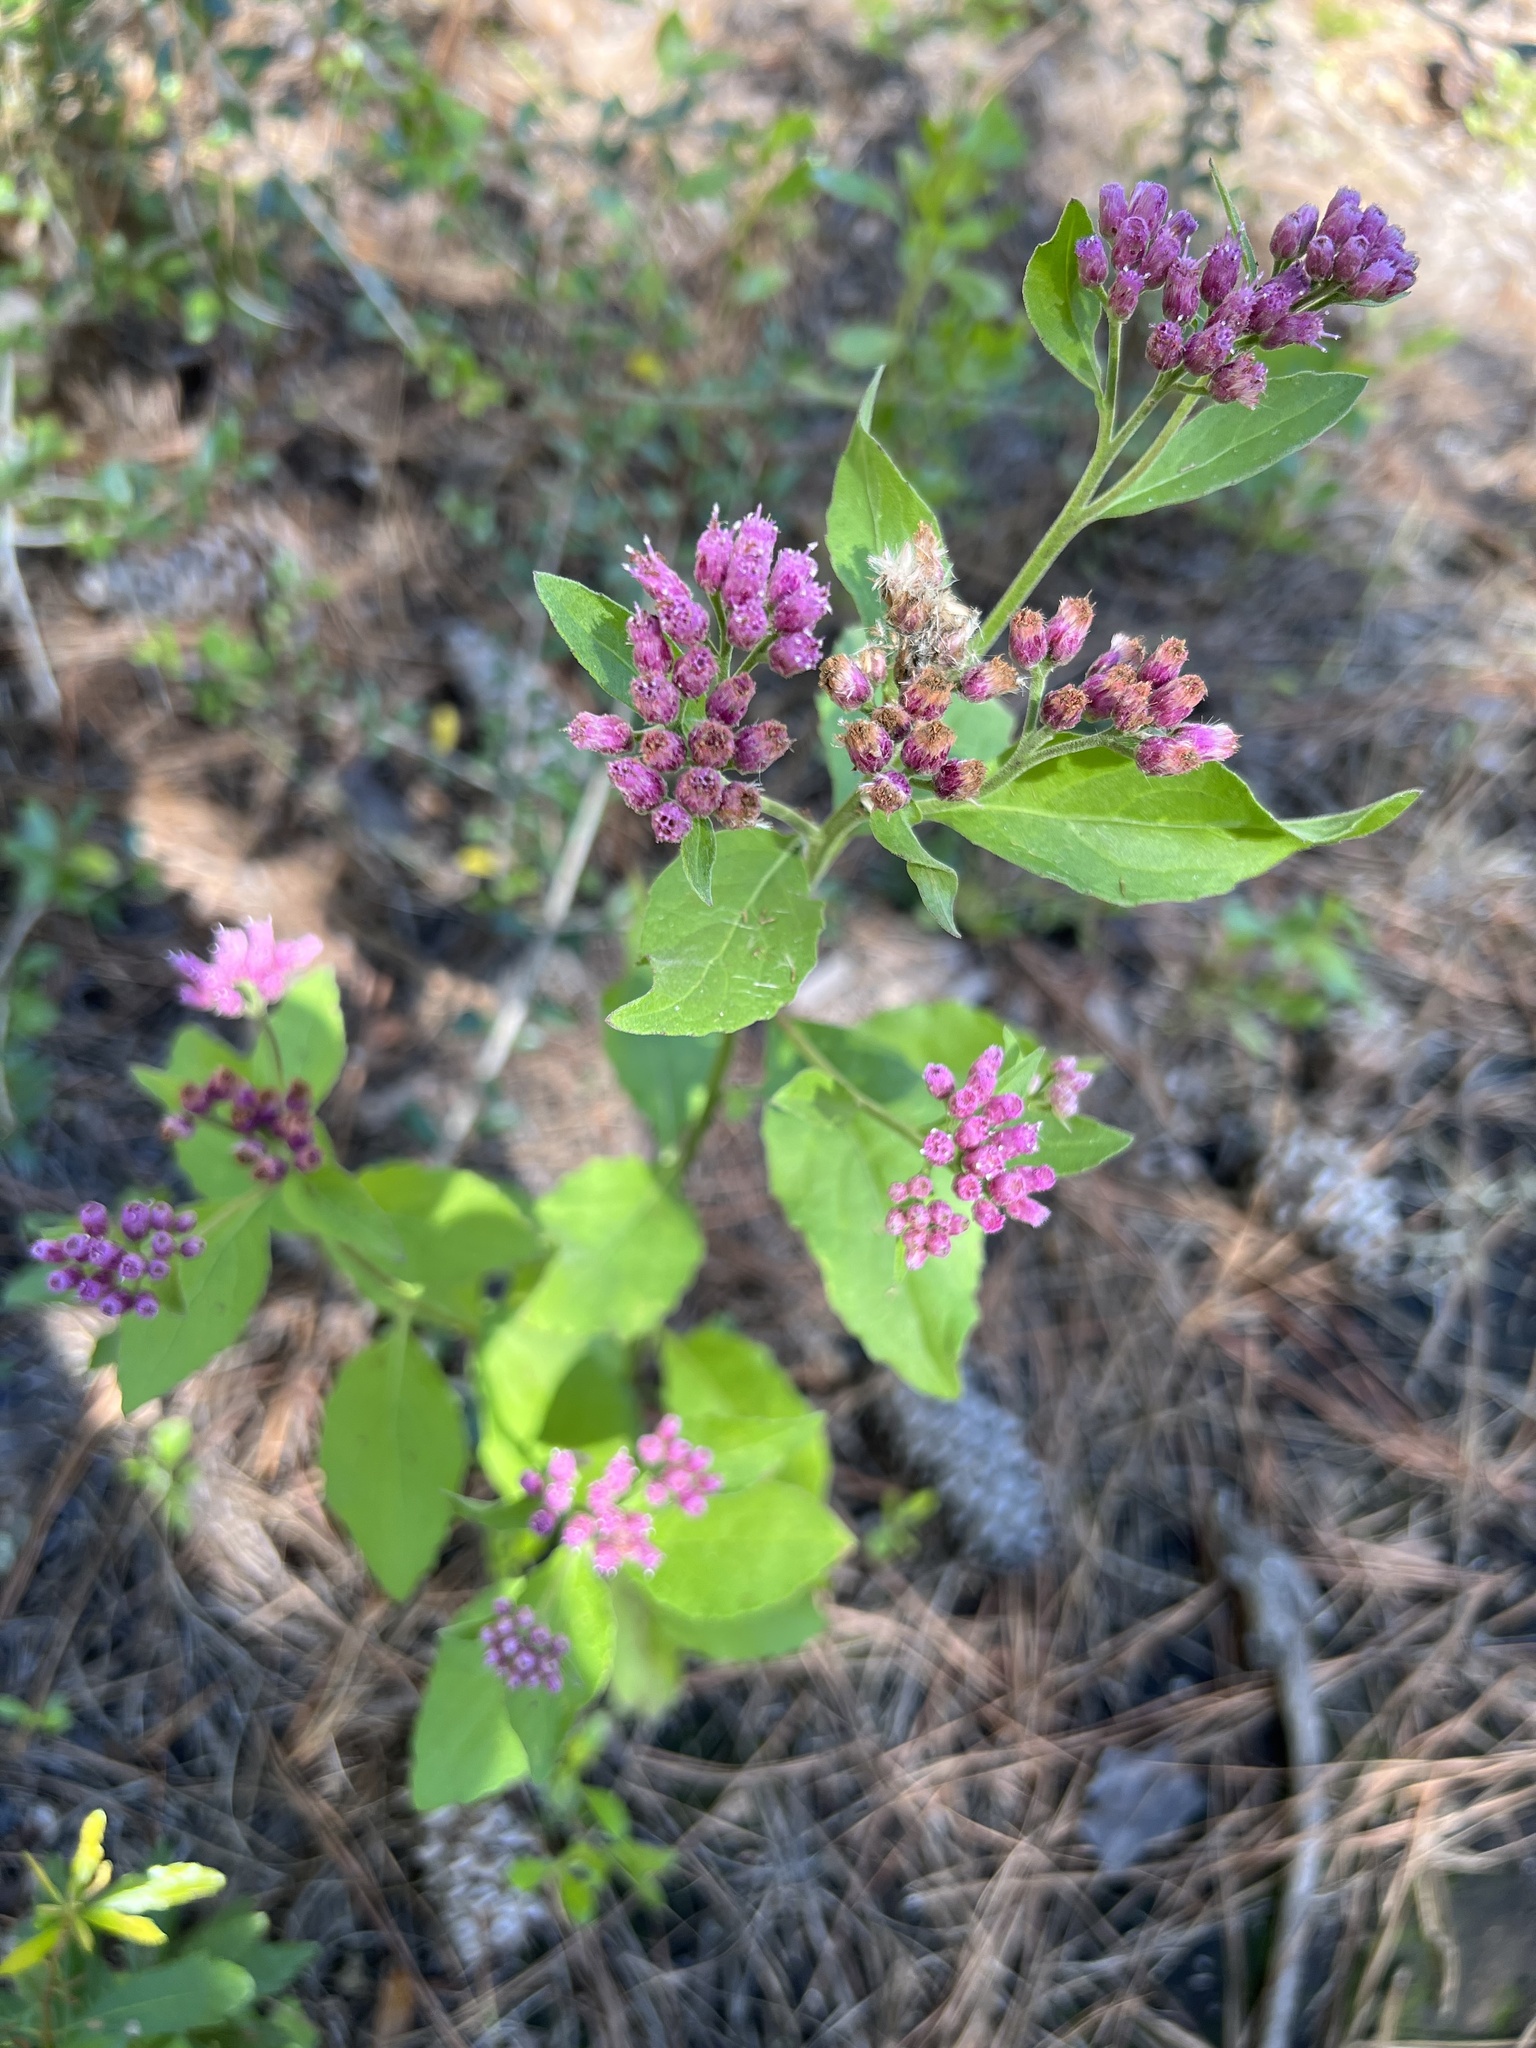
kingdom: Plantae
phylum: Tracheophyta
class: Magnoliopsida
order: Asterales
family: Asteraceae
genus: Pluchea
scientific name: Pluchea odorata
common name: Saltmarsh fleabane
